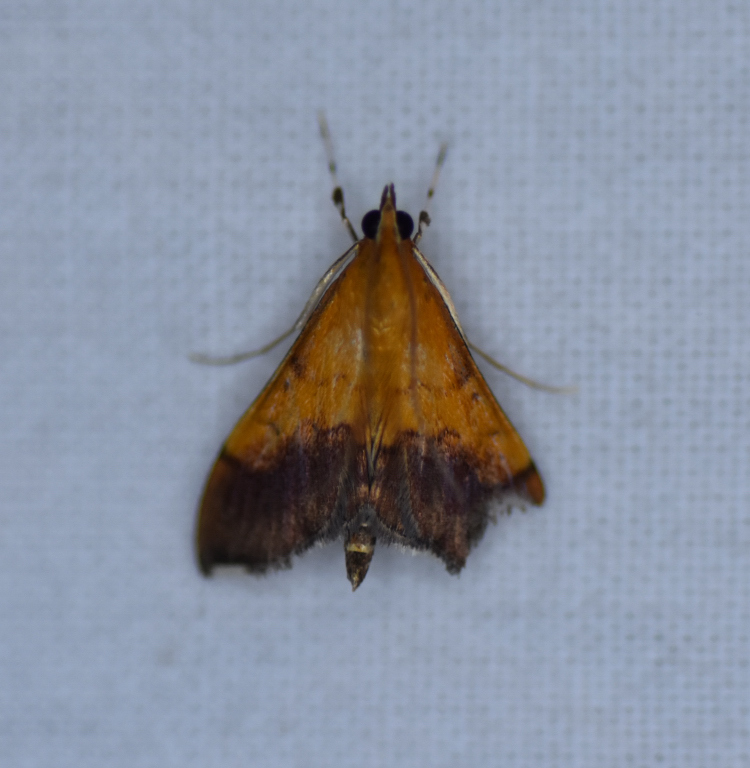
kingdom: Animalia
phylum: Arthropoda
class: Insecta
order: Lepidoptera
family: Crambidae
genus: Pyrausta
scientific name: Pyrausta bicoloralis
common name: Bicolored pyrausta moth
